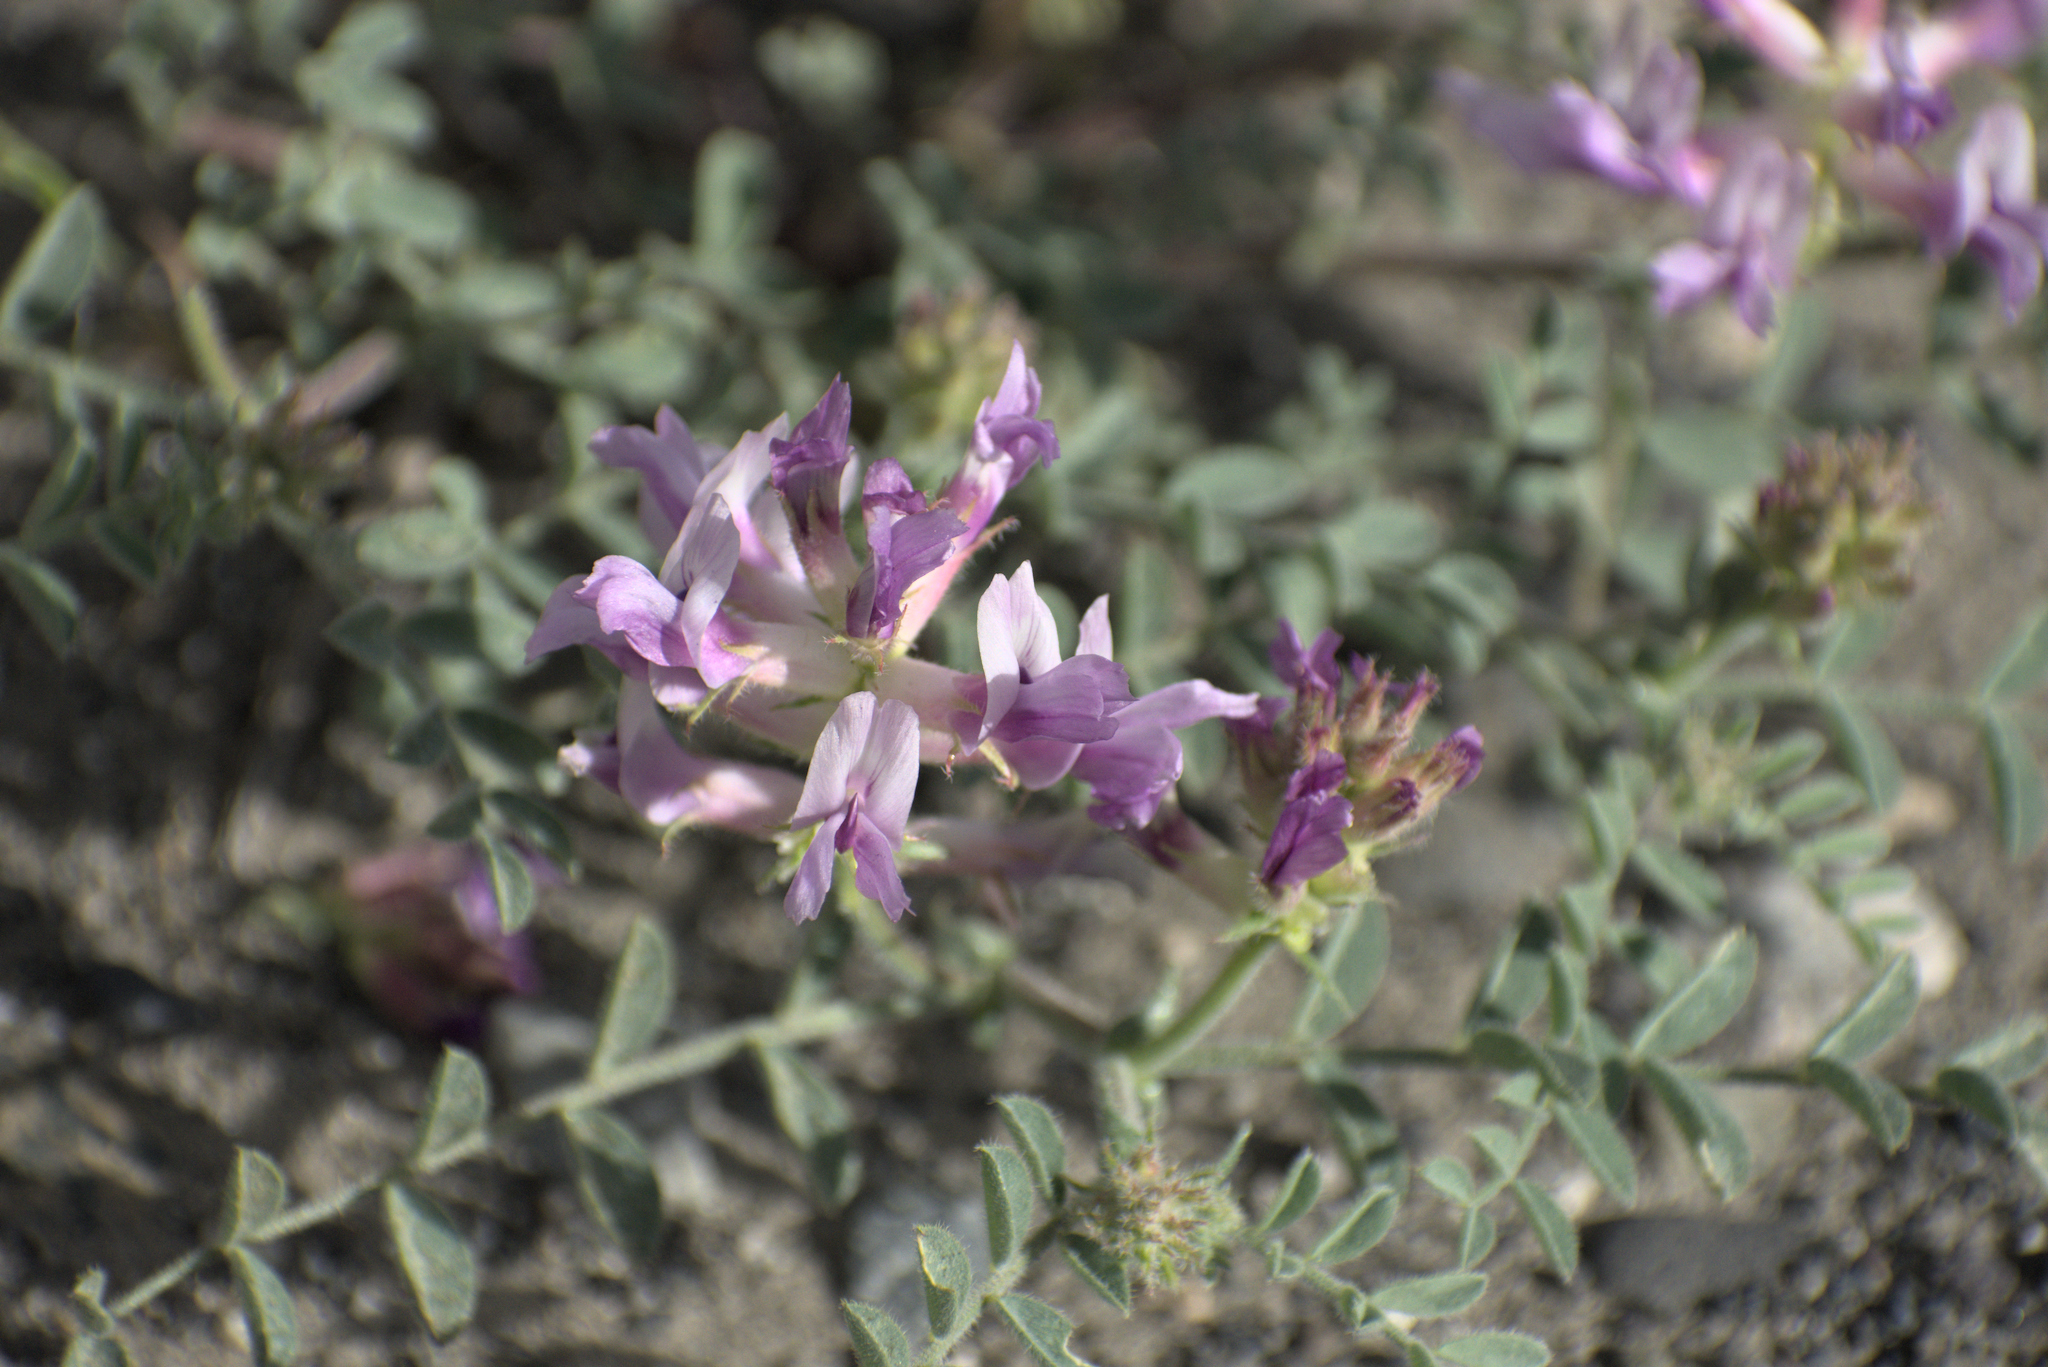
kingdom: Plantae
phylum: Tracheophyta
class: Magnoliopsida
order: Fabales
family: Fabaceae
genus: Astragalus
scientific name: Astragalus succumbens
